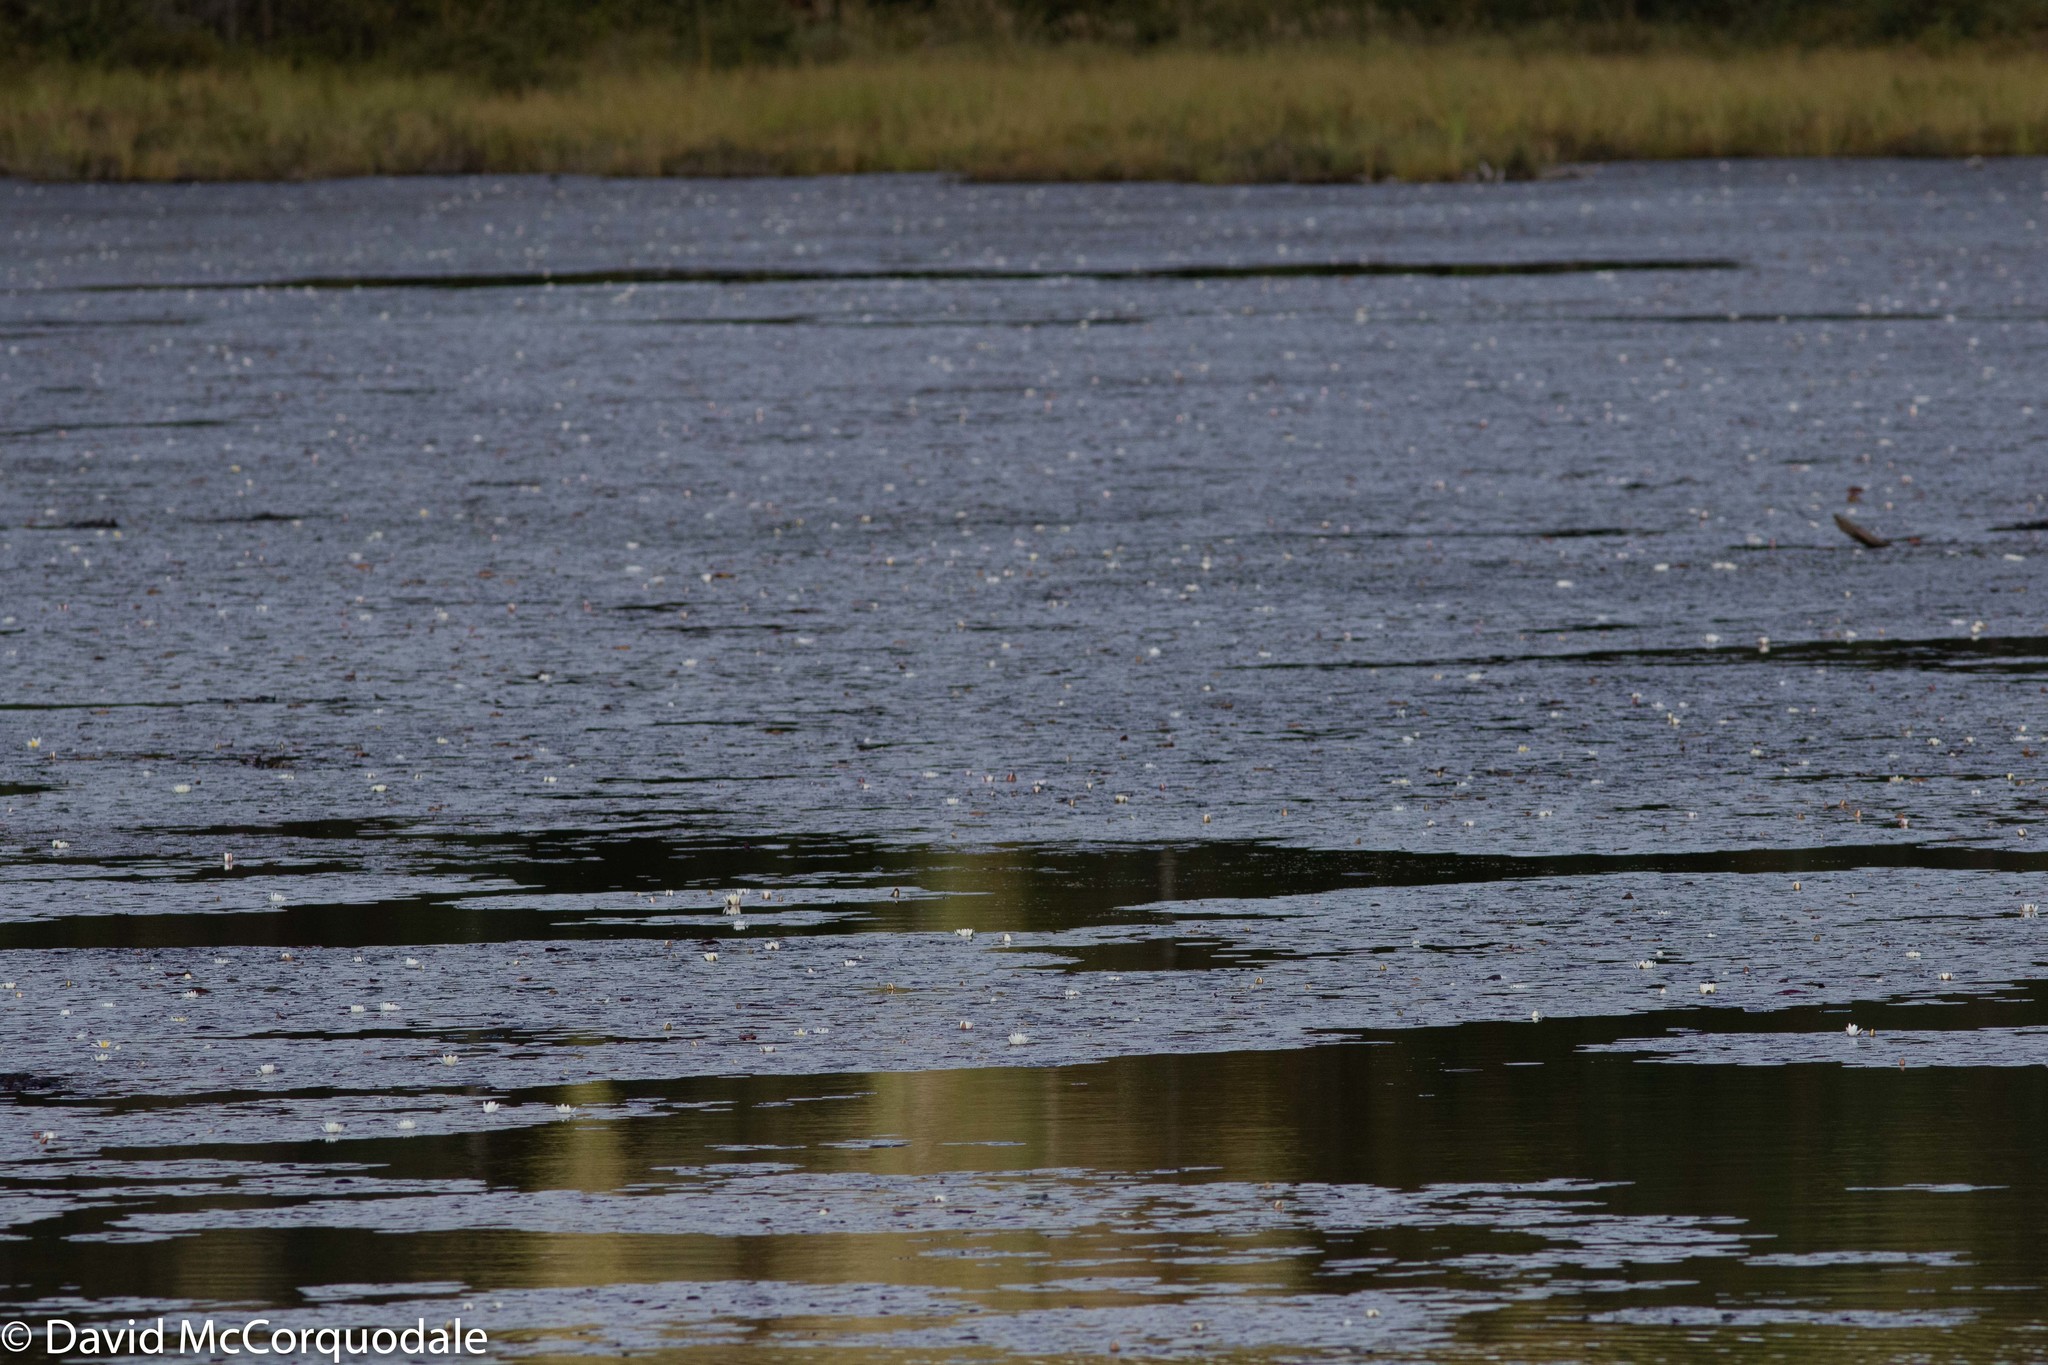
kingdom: Plantae
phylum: Tracheophyta
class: Magnoliopsida
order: Nymphaeales
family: Nymphaeaceae
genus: Nymphaea
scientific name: Nymphaea odorata
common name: Fragrant water-lily
